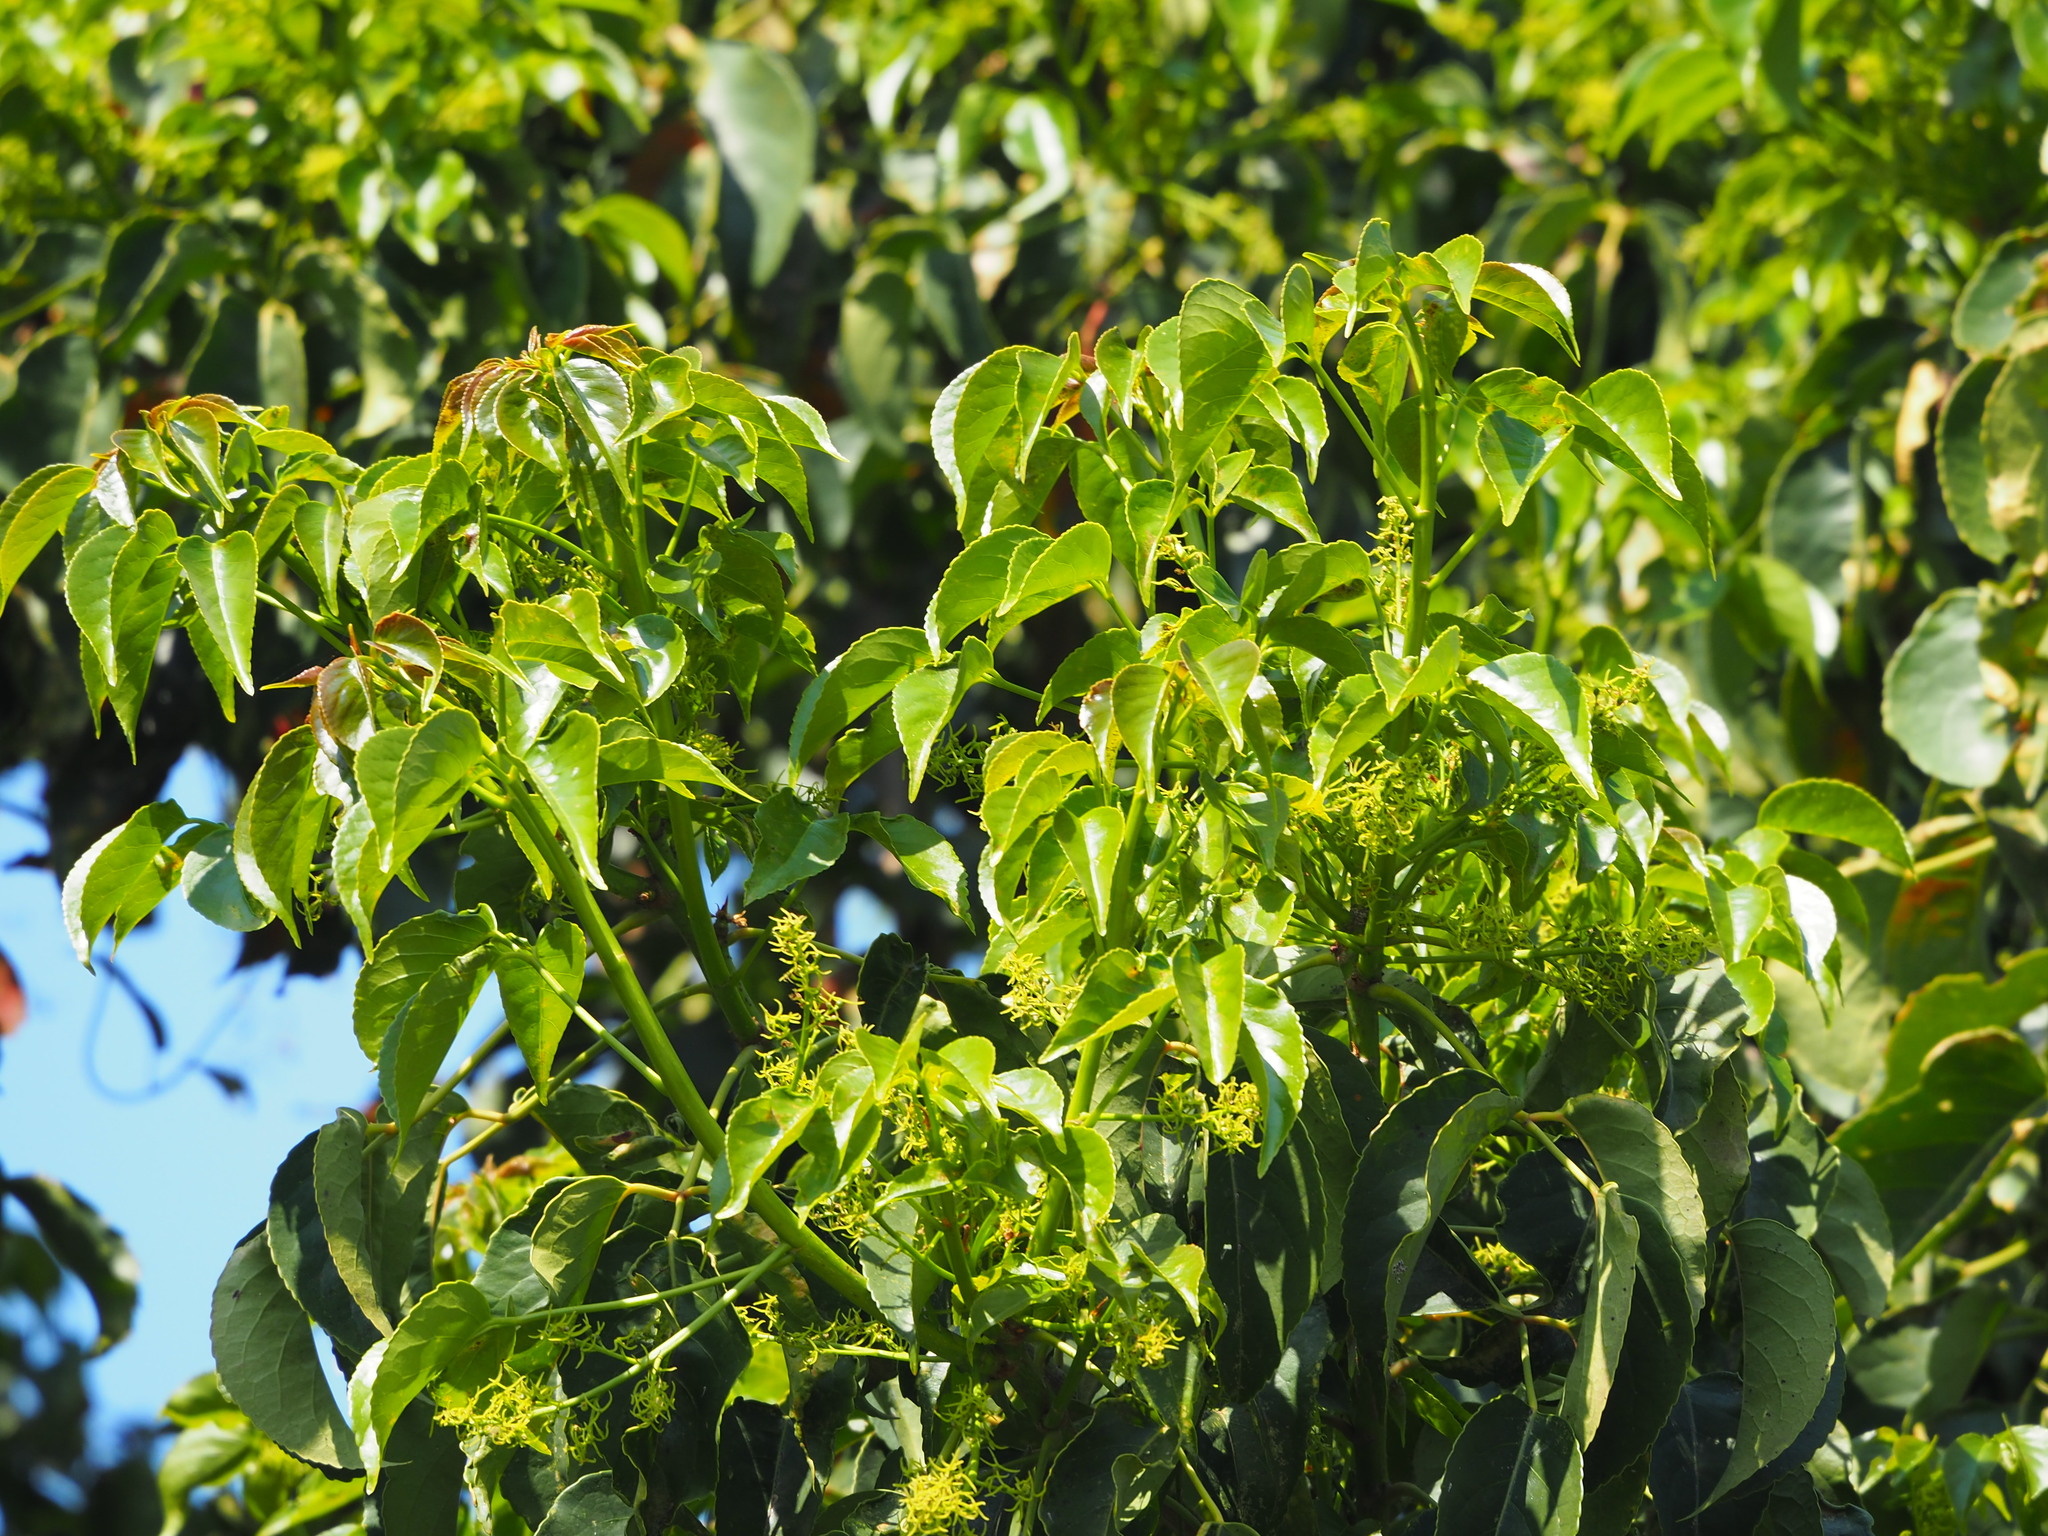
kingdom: Plantae
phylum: Tracheophyta
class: Magnoliopsida
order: Malpighiales
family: Phyllanthaceae
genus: Bischofia
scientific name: Bischofia javanica
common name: Javanese bishopwood
